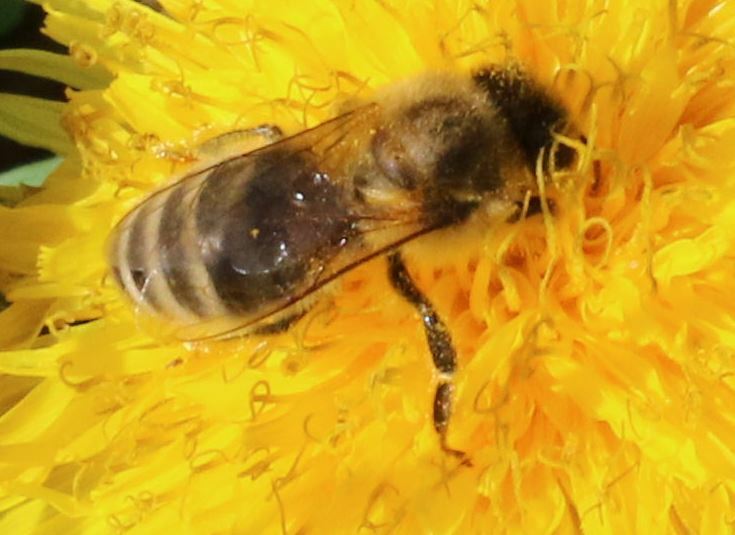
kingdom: Animalia
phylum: Arthropoda
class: Insecta
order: Hymenoptera
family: Apidae
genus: Apis
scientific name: Apis mellifera
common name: Honey bee
